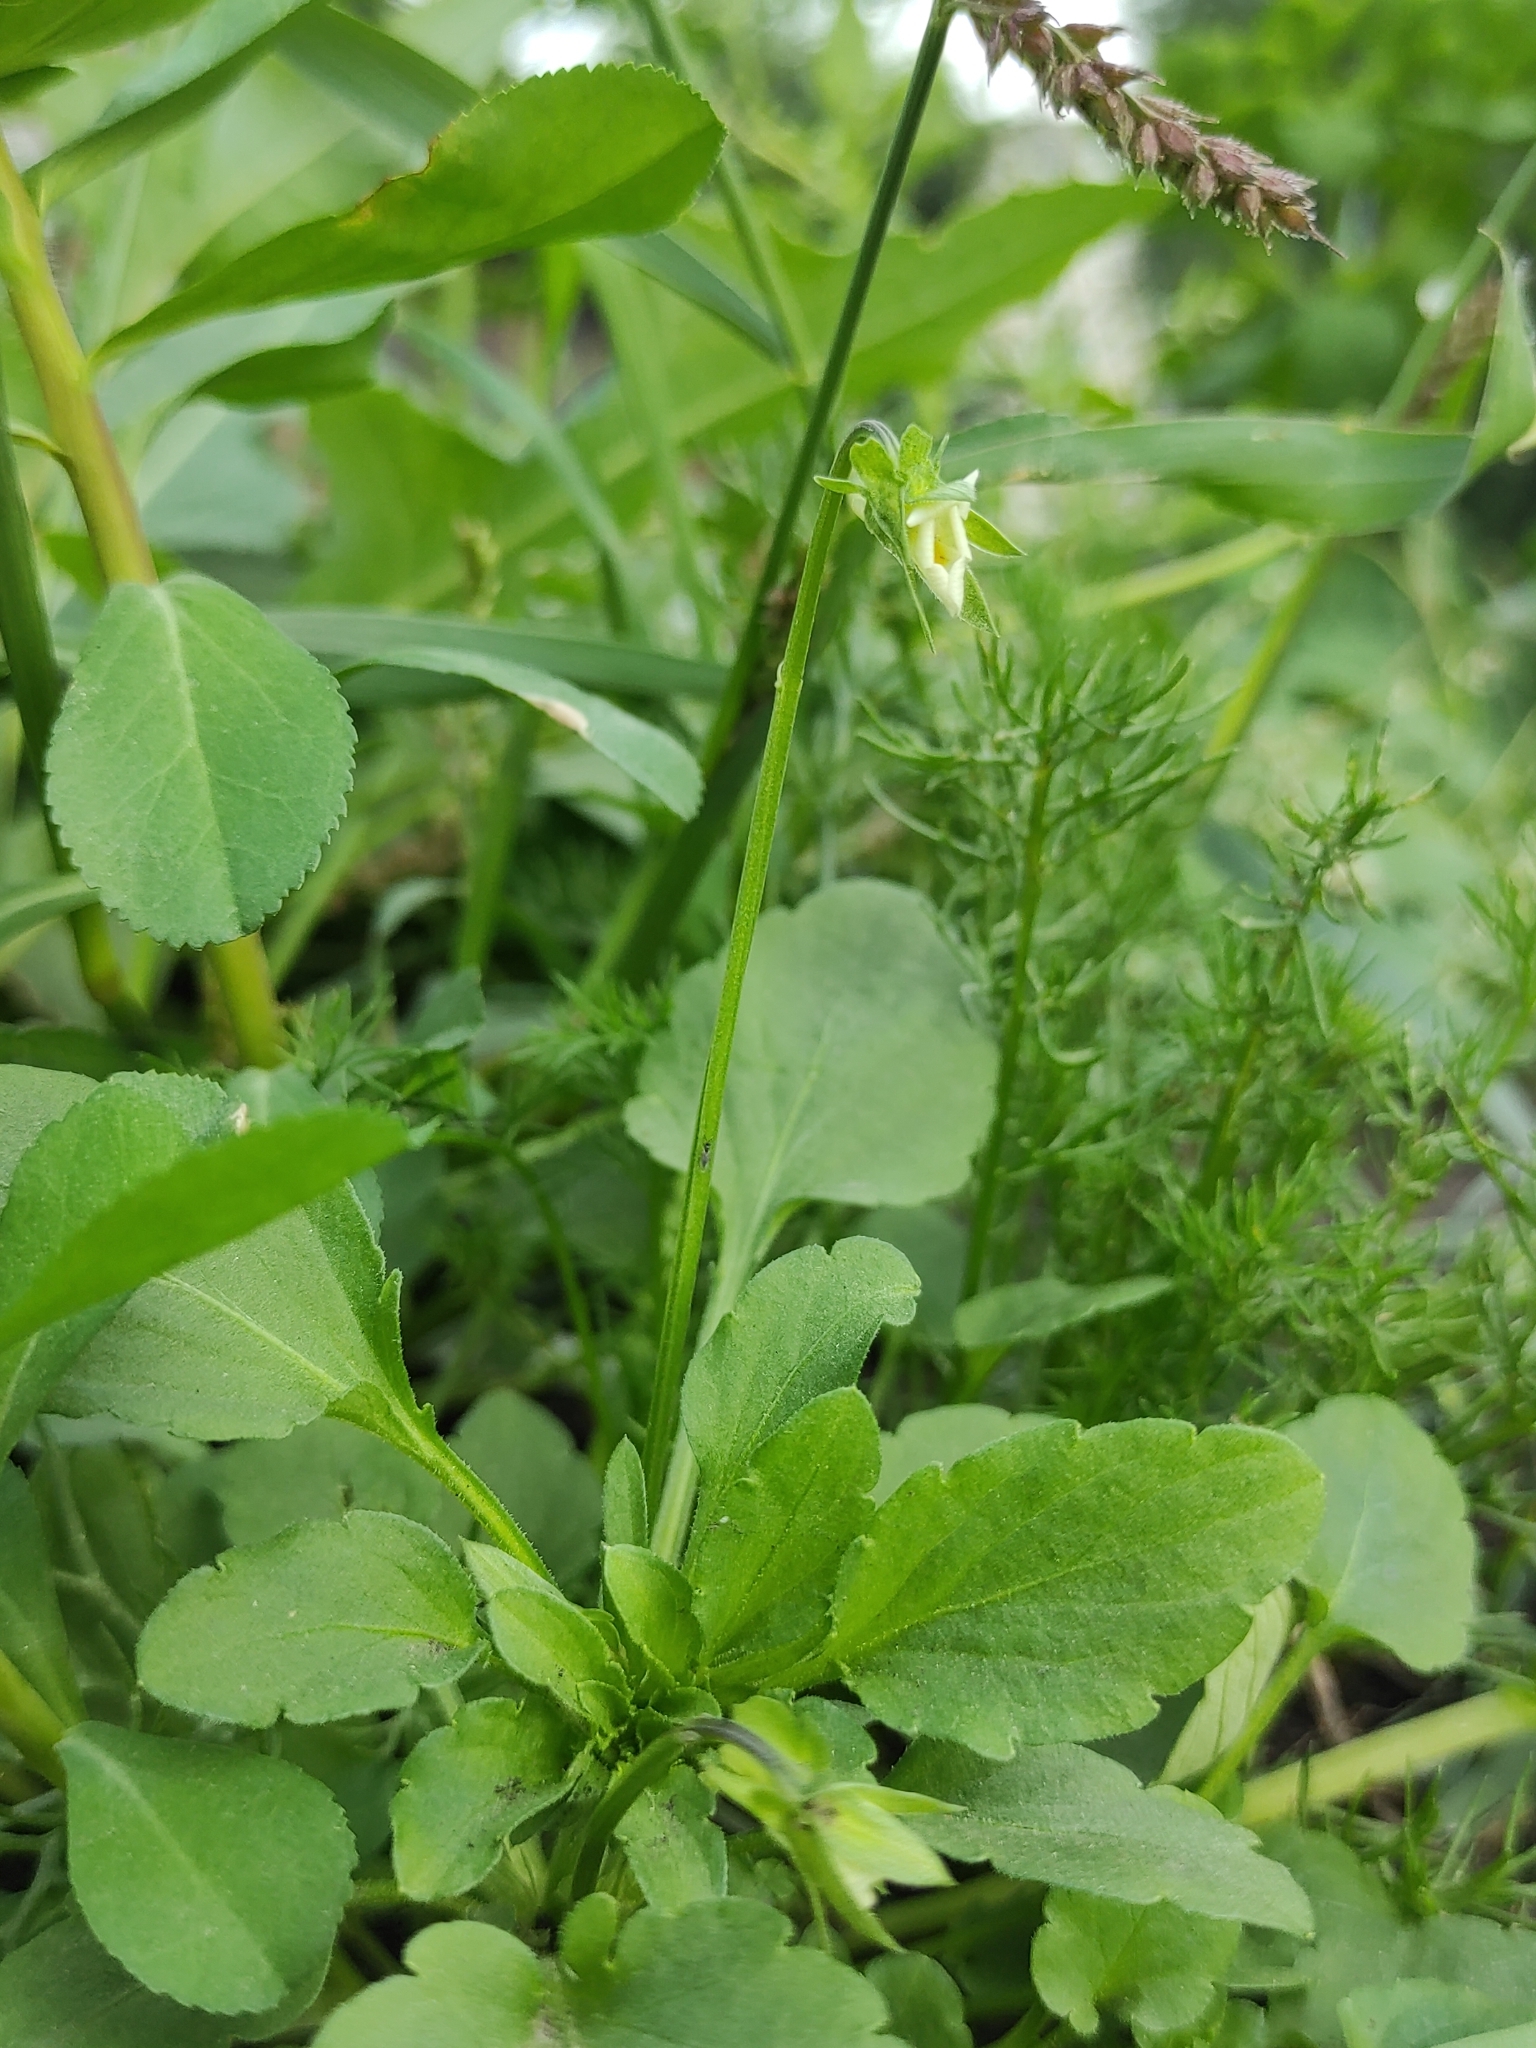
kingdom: Plantae
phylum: Tracheophyta
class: Magnoliopsida
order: Malpighiales
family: Violaceae
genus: Viola
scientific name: Viola arvensis
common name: Field pansy
